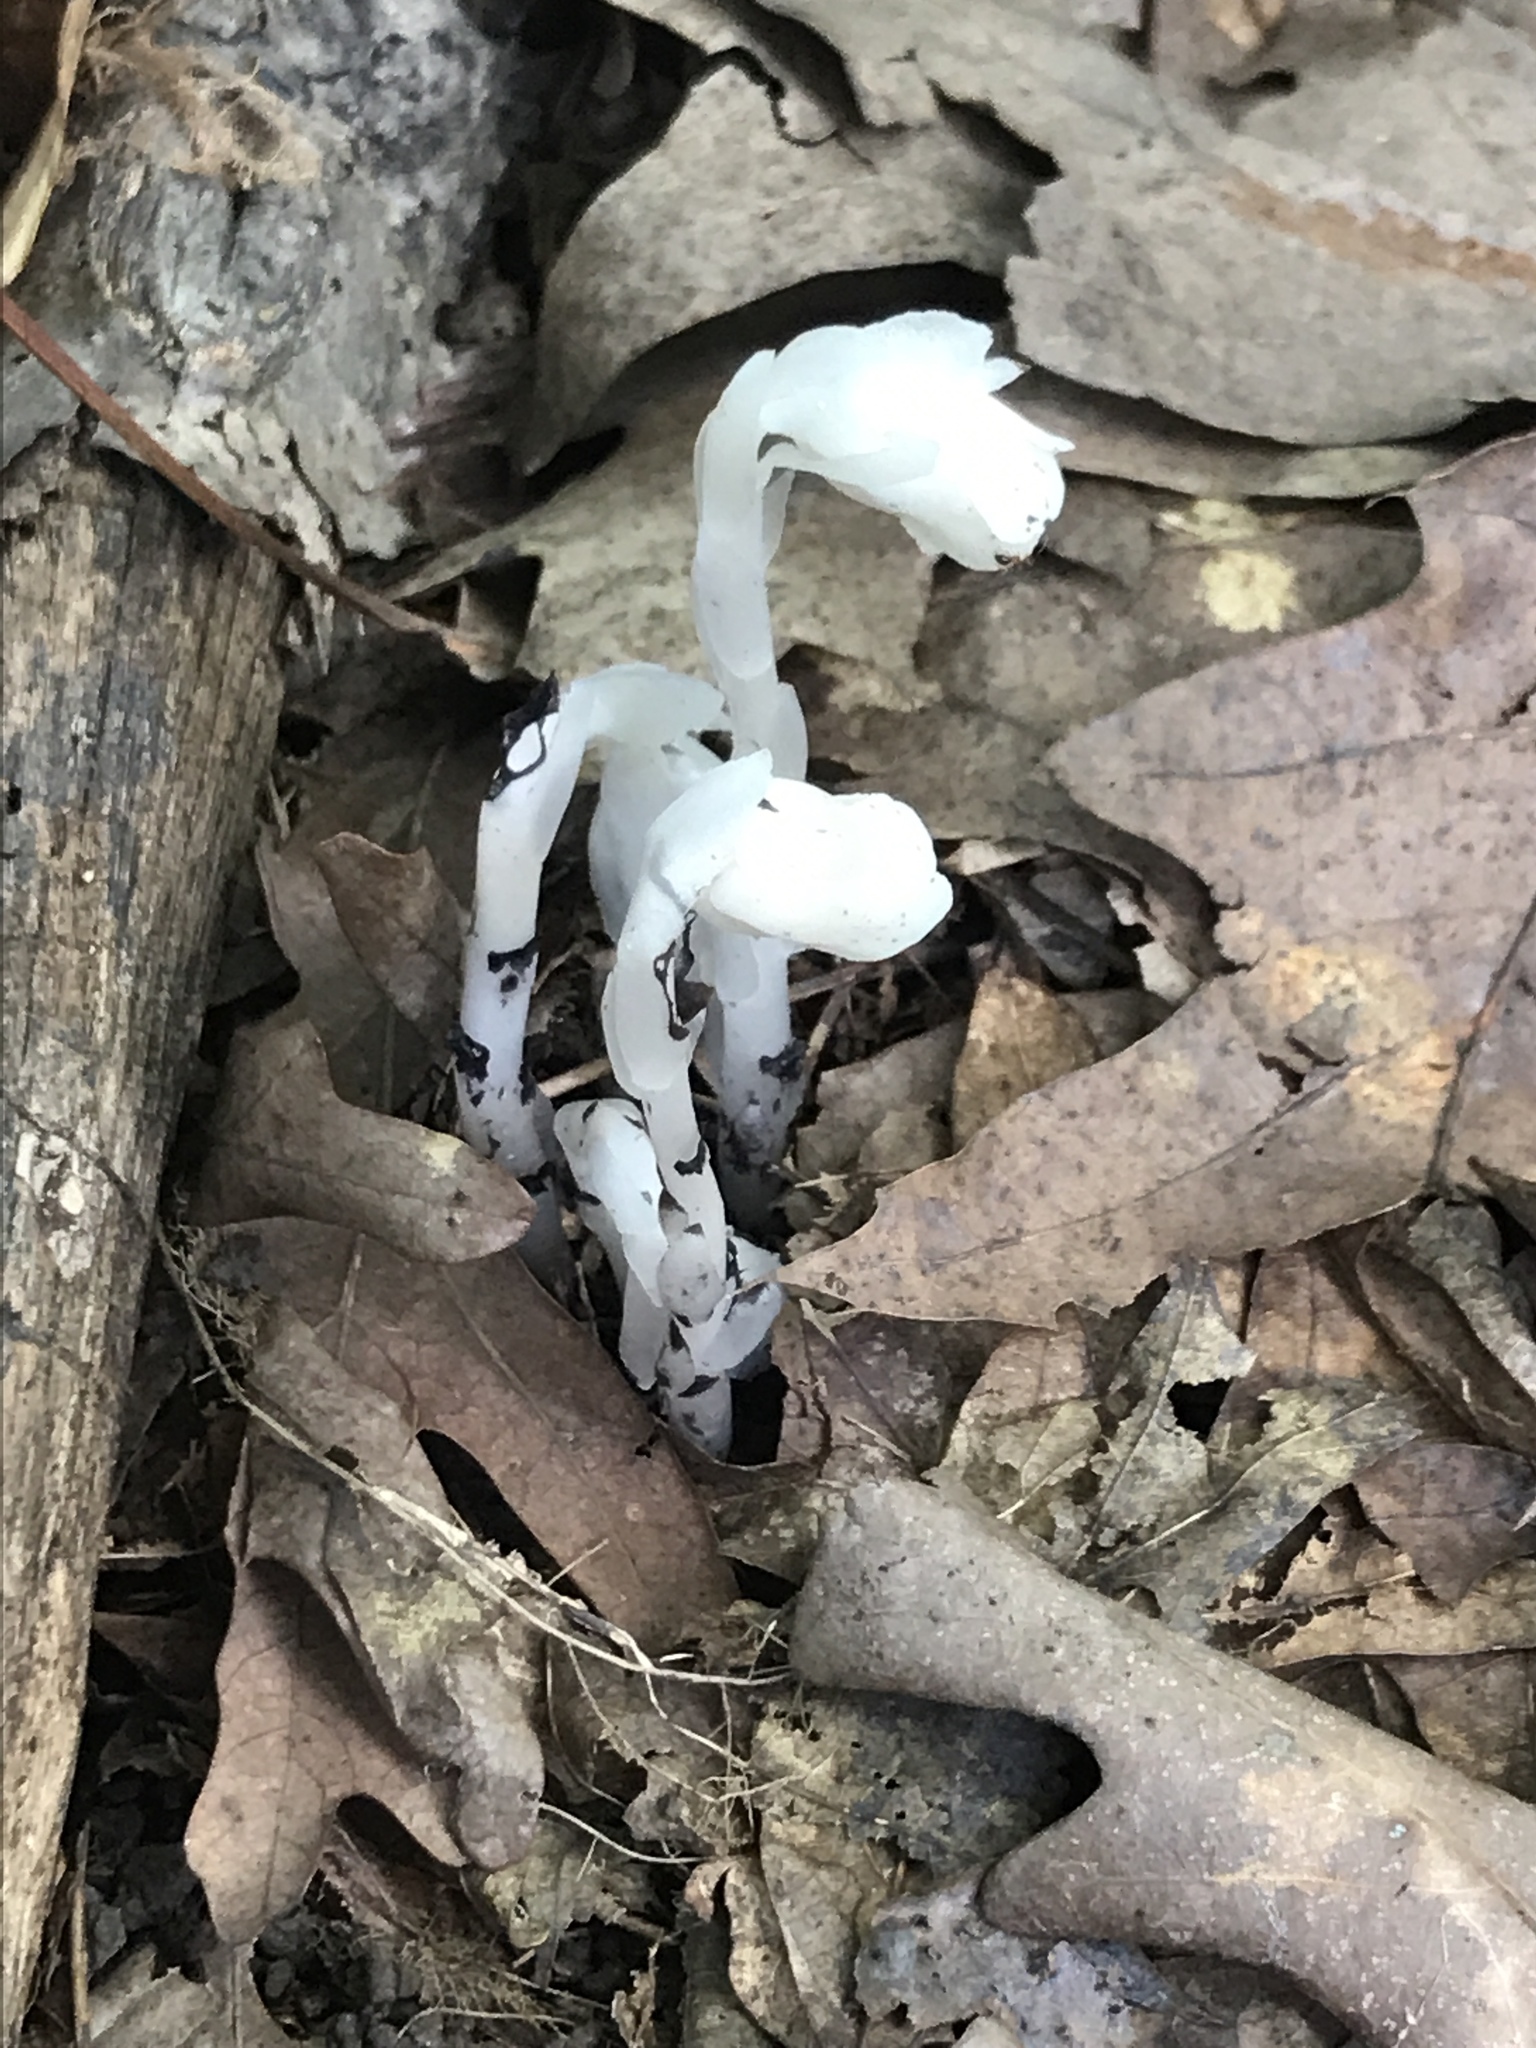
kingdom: Plantae
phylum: Tracheophyta
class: Magnoliopsida
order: Ericales
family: Ericaceae
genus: Monotropa
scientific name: Monotropa uniflora
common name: Convulsion root
